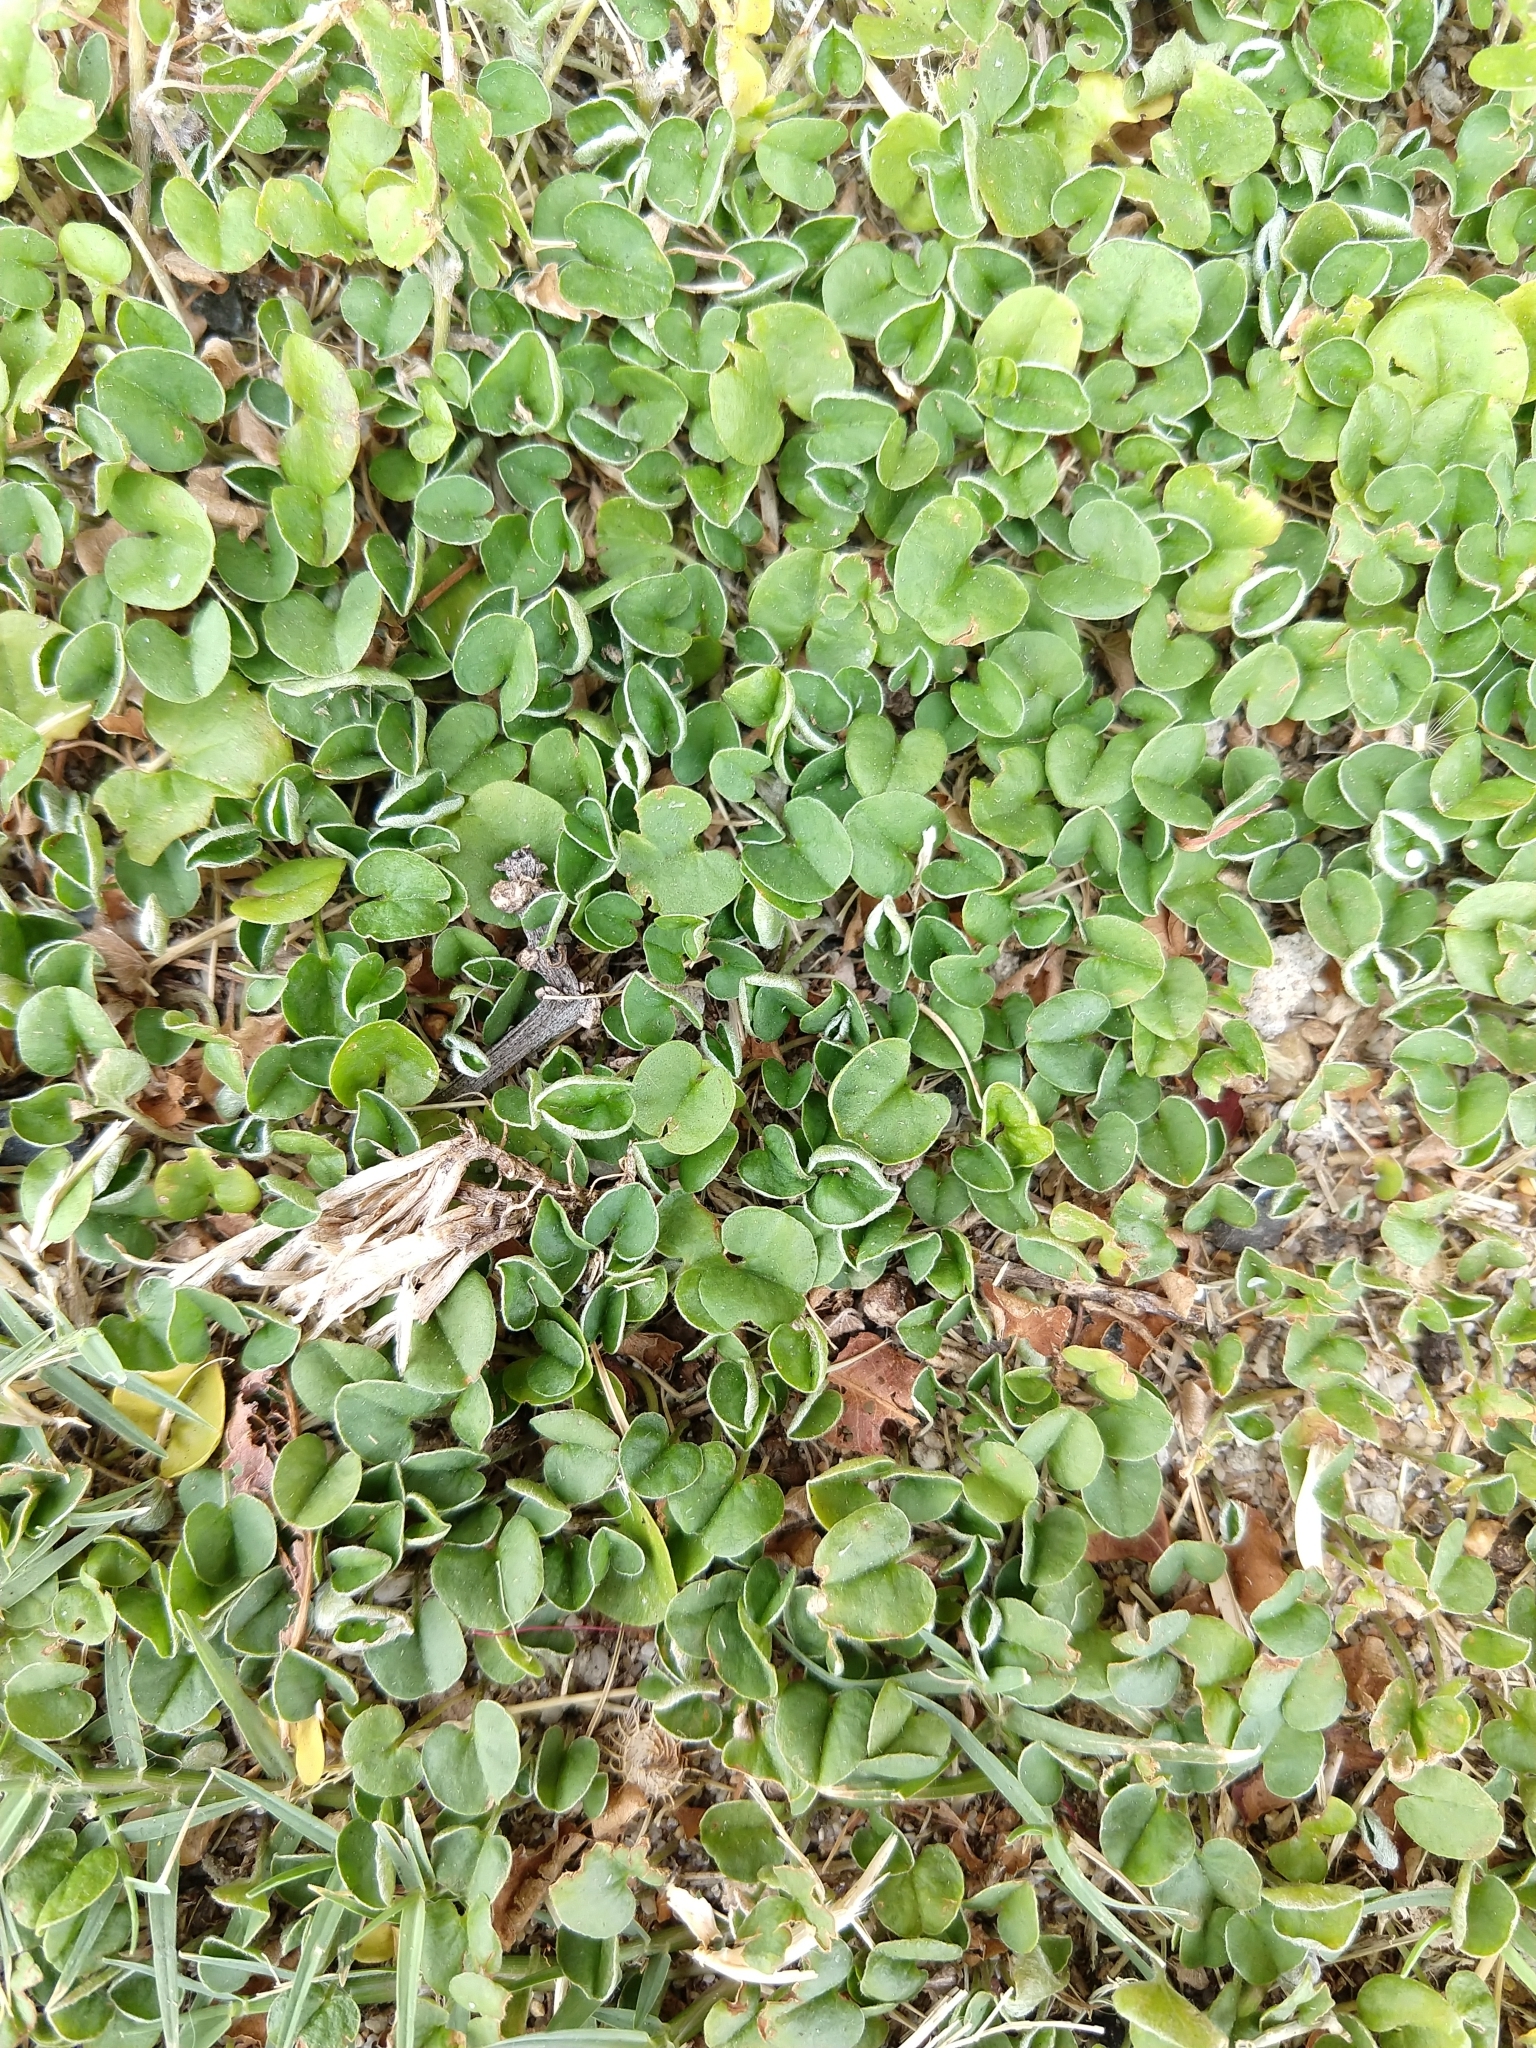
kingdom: Plantae
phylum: Tracheophyta
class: Magnoliopsida
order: Solanales
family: Convolvulaceae
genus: Dichondra
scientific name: Dichondra micrantha
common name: Kidneyweed
